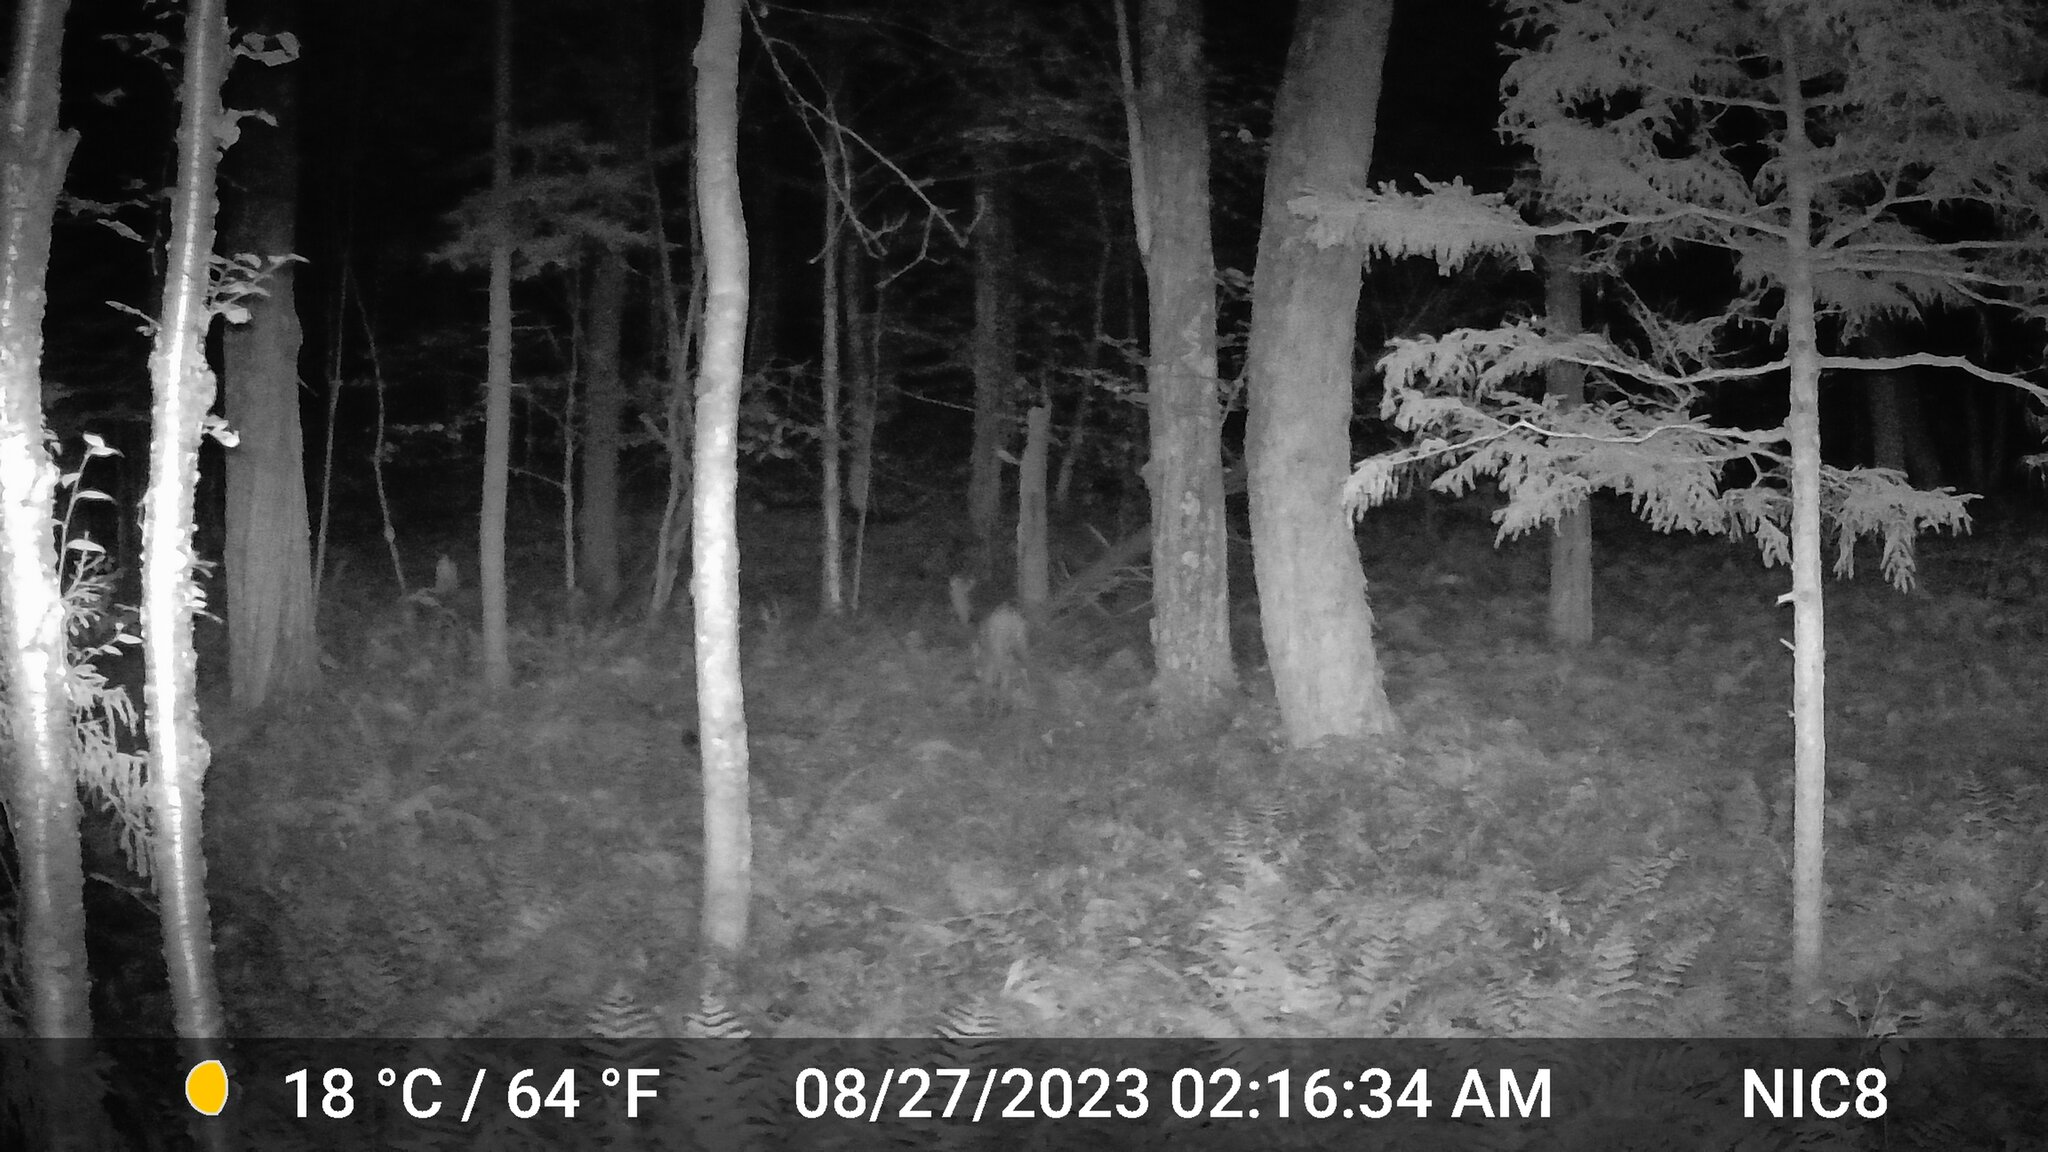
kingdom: Animalia
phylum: Chordata
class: Mammalia
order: Artiodactyla
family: Cervidae
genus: Odocoileus
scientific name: Odocoileus virginianus
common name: White-tailed deer
